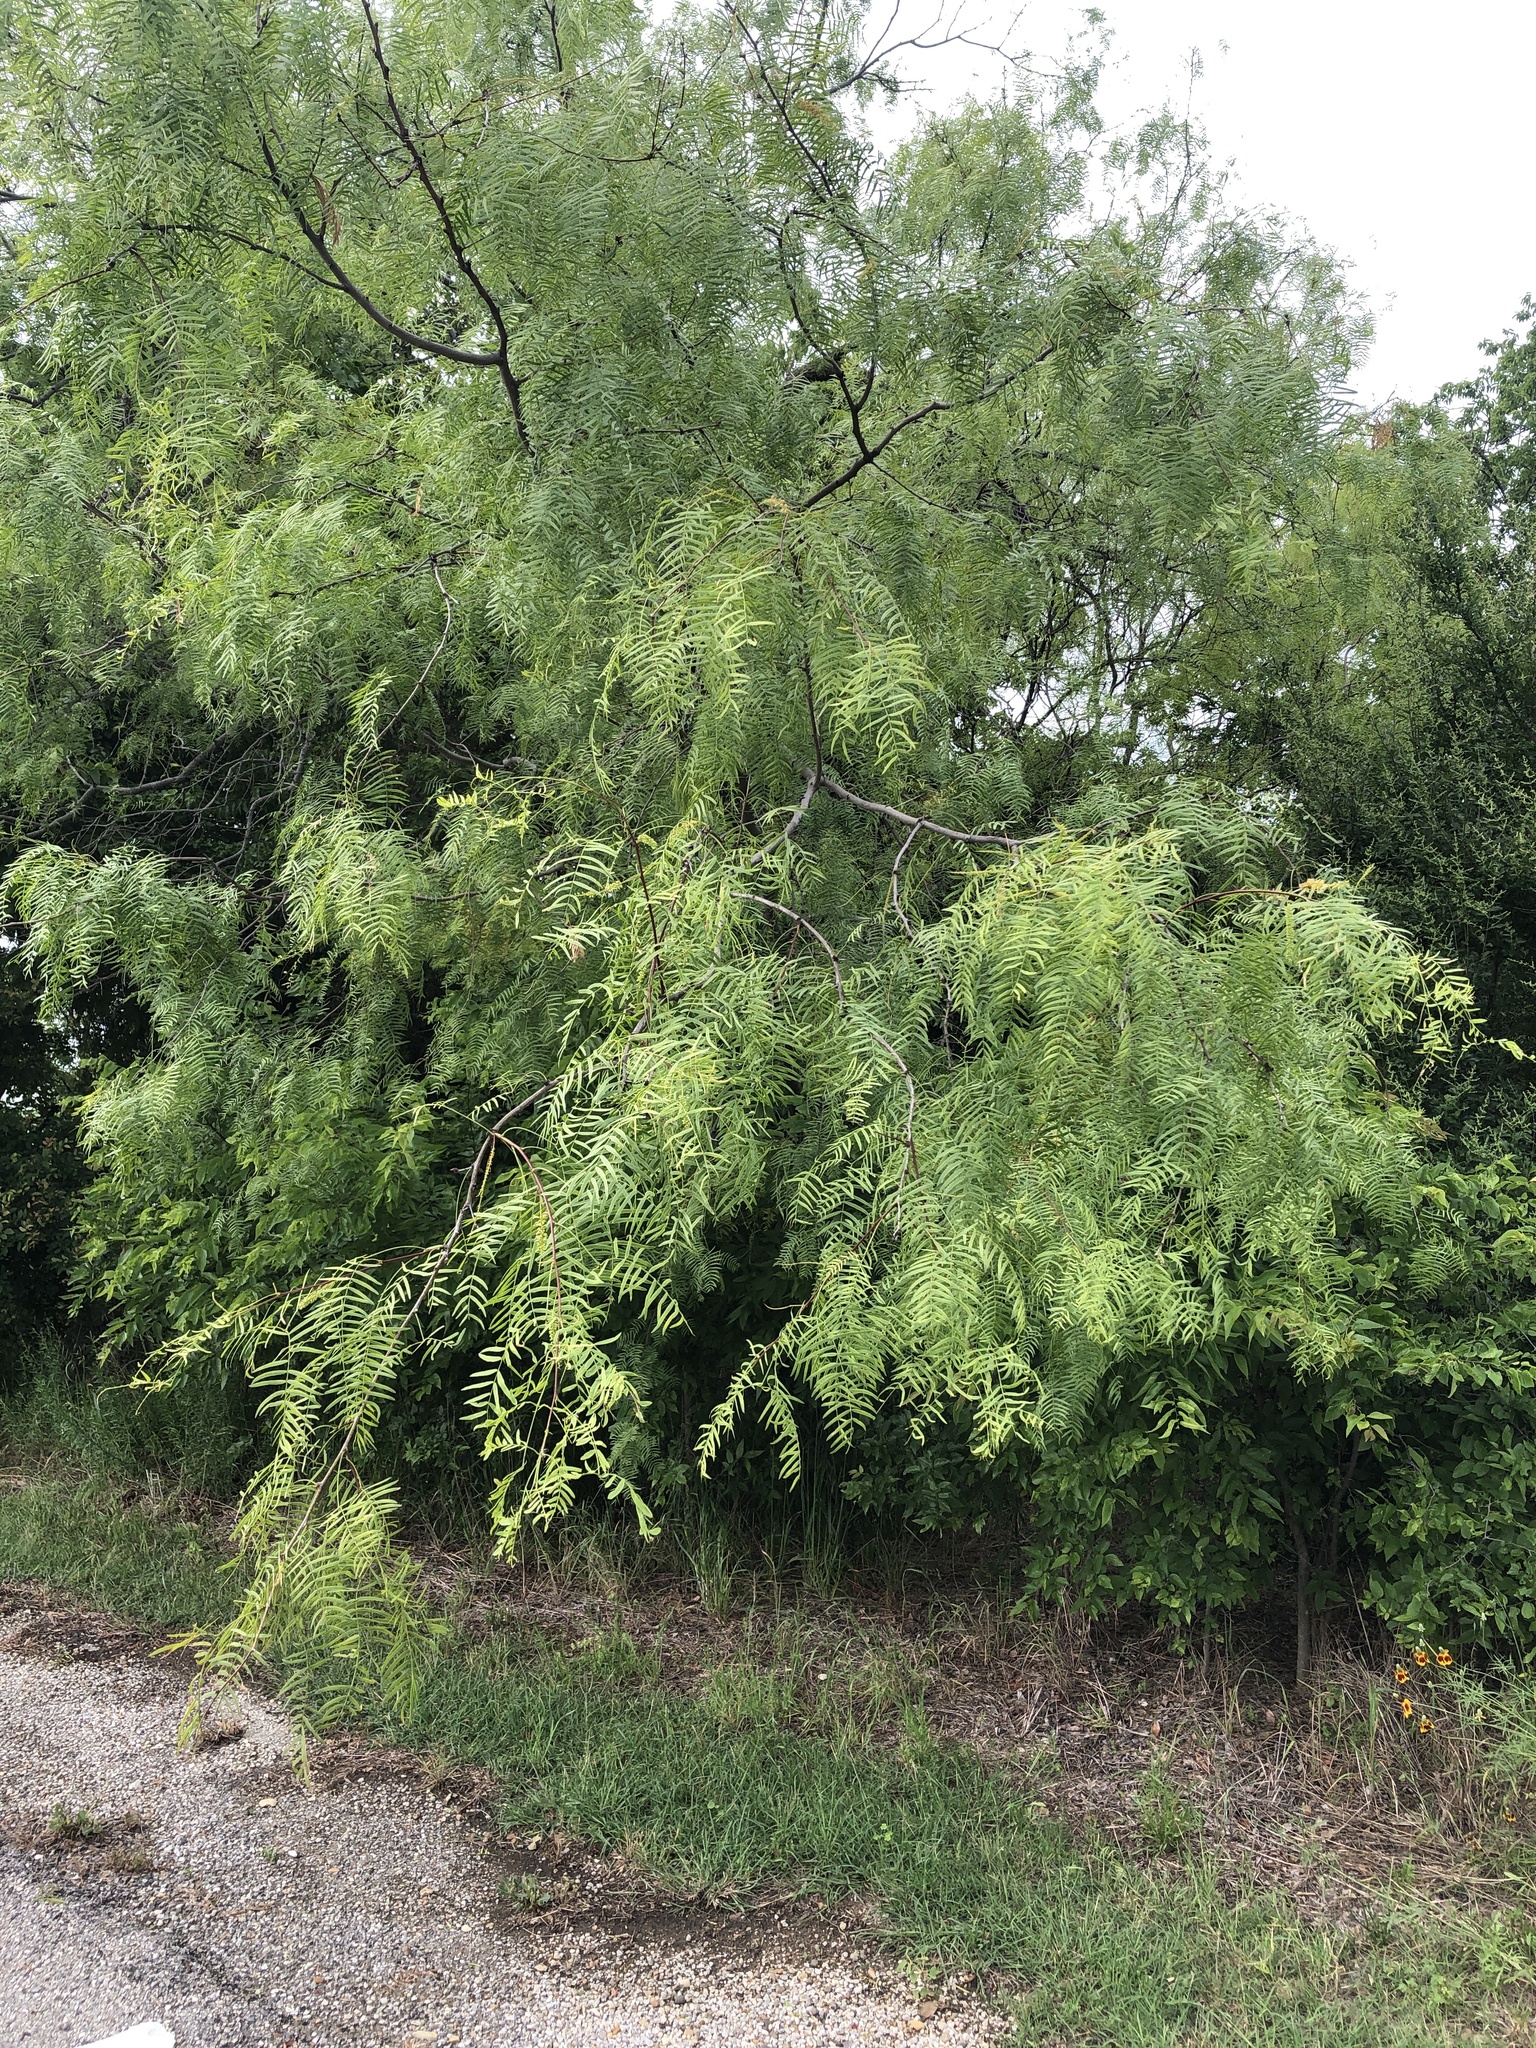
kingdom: Plantae
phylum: Tracheophyta
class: Magnoliopsida
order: Fabales
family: Fabaceae
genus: Prosopis
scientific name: Prosopis glandulosa
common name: Honey mesquite
